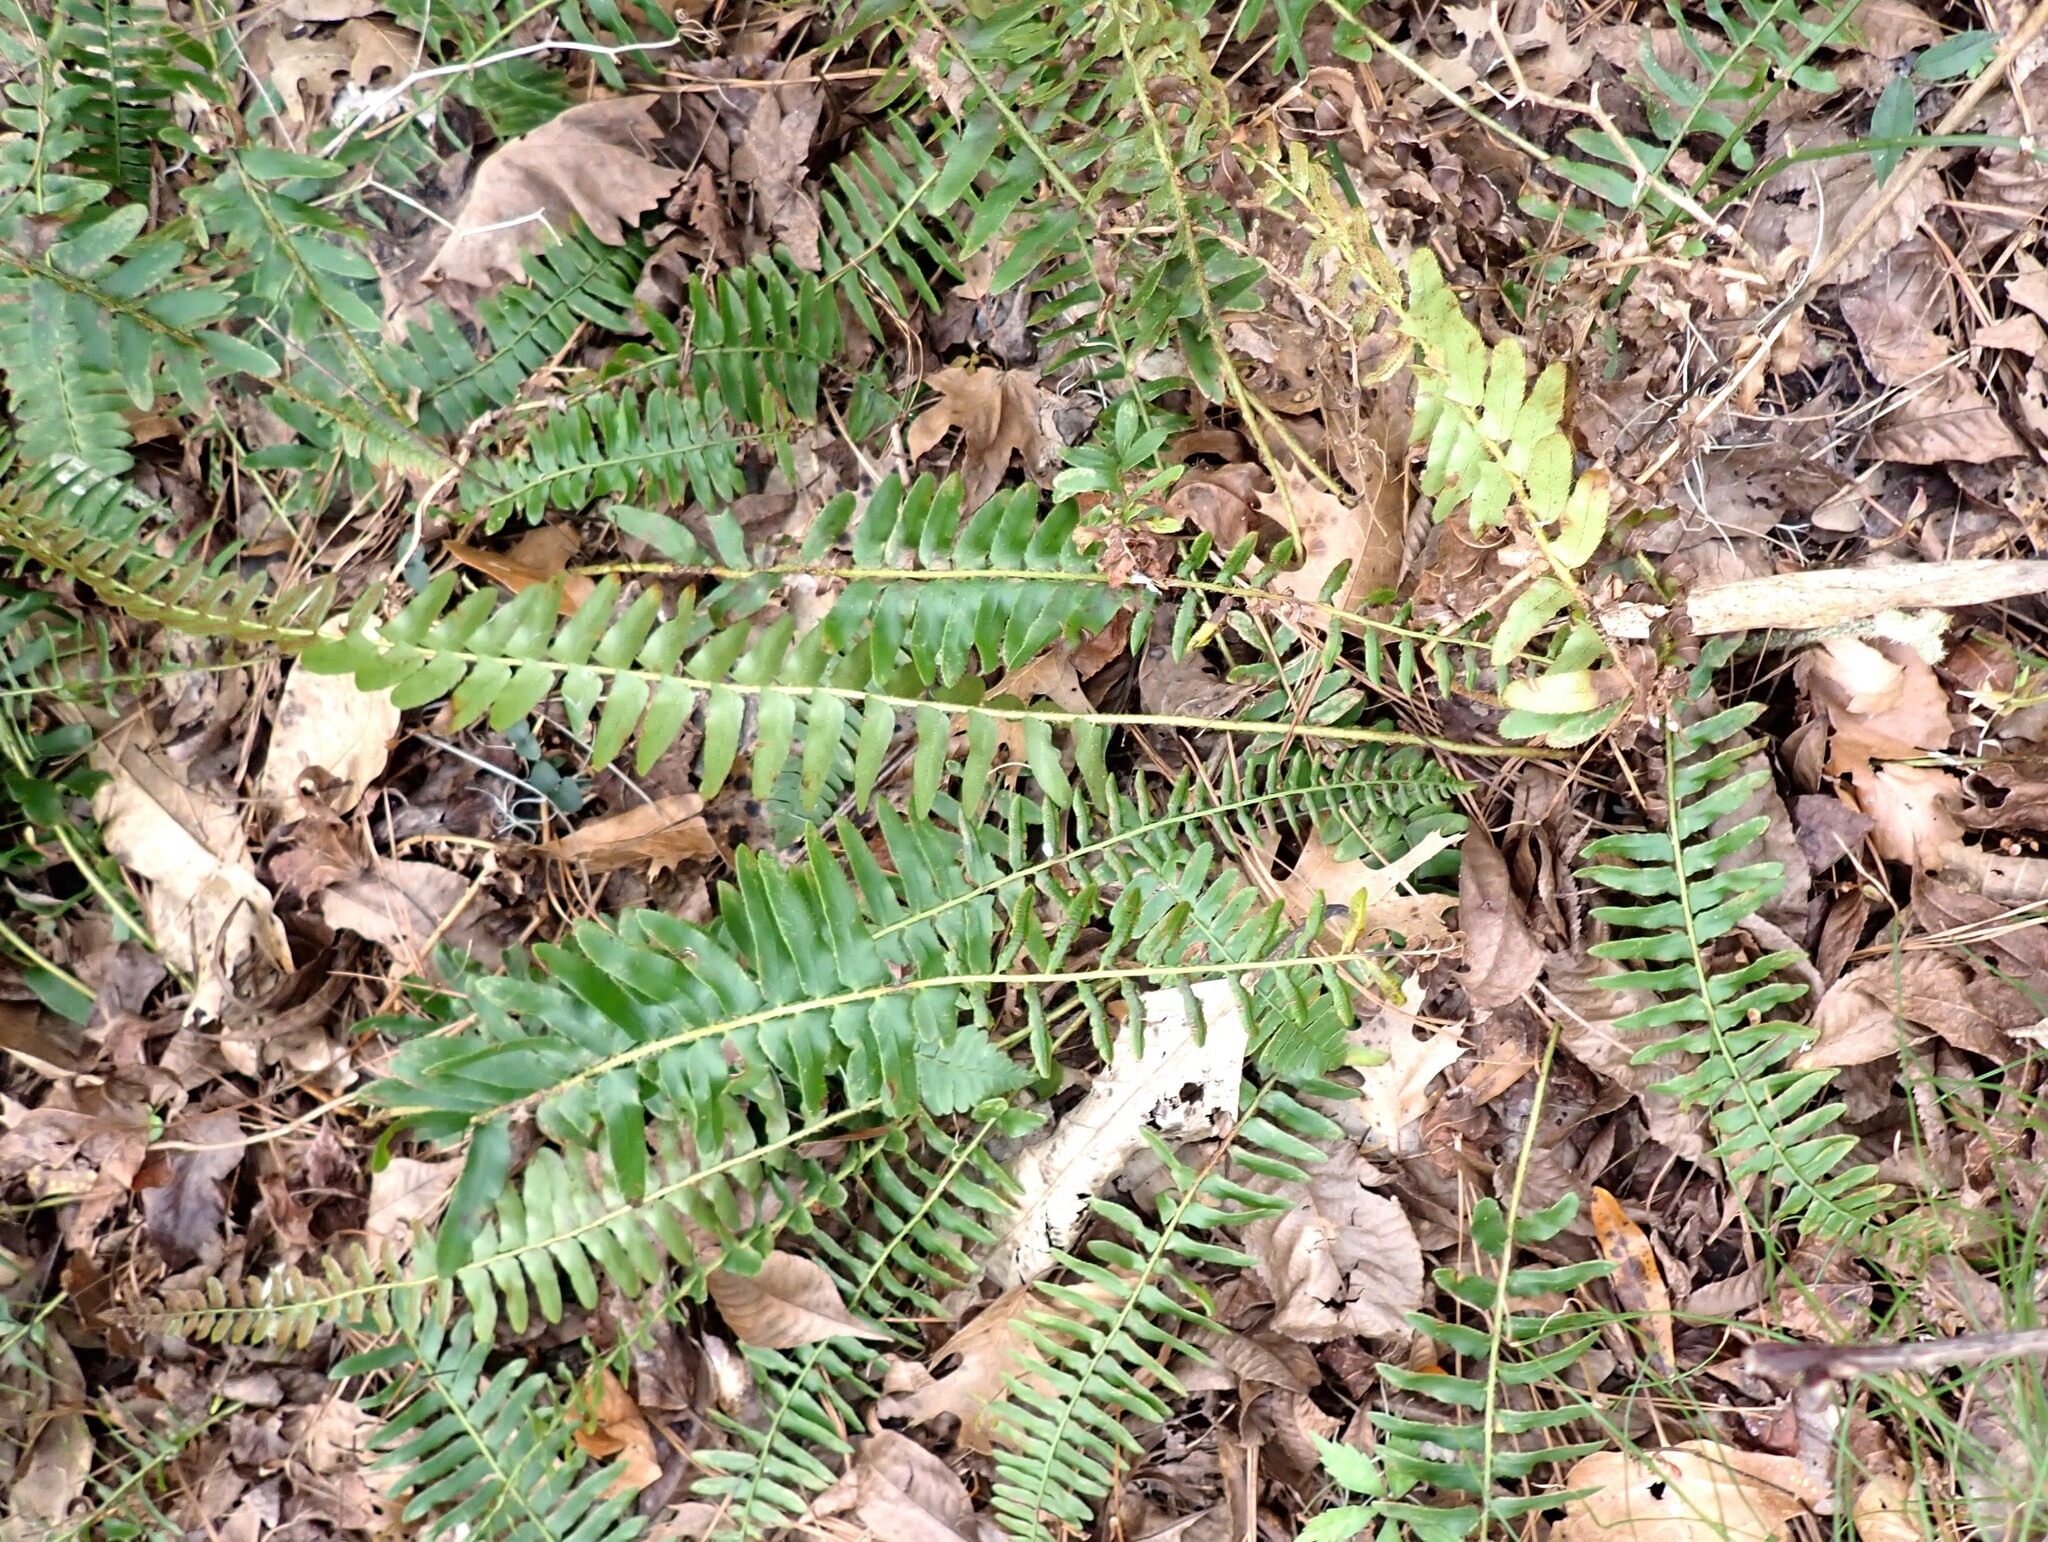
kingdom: Plantae
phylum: Tracheophyta
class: Polypodiopsida
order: Polypodiales
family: Dryopteridaceae
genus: Polystichum
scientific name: Polystichum acrostichoides
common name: Christmas fern
